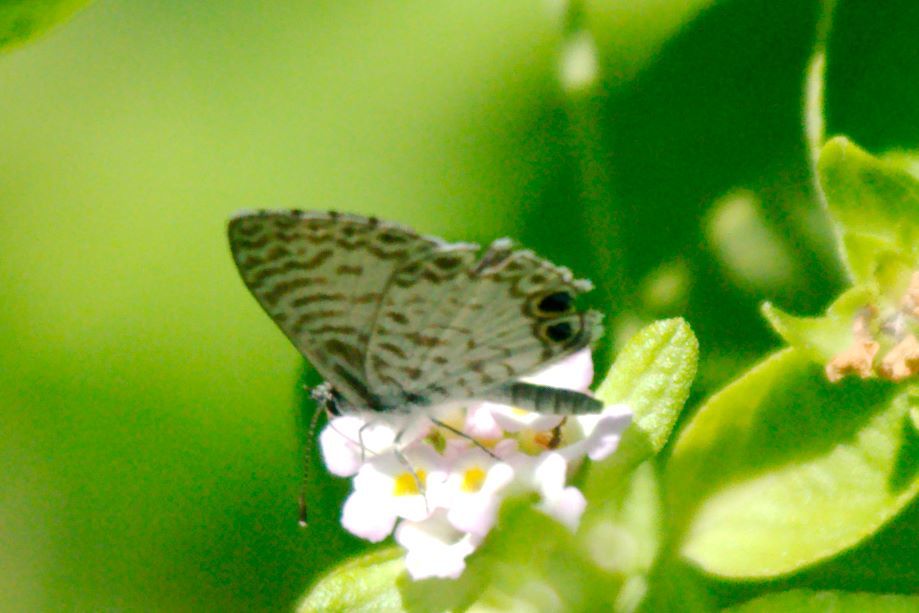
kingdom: Animalia
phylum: Arthropoda
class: Insecta
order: Lepidoptera
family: Lycaenidae
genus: Leptotes
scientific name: Leptotes cassius
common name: Cassius blue
